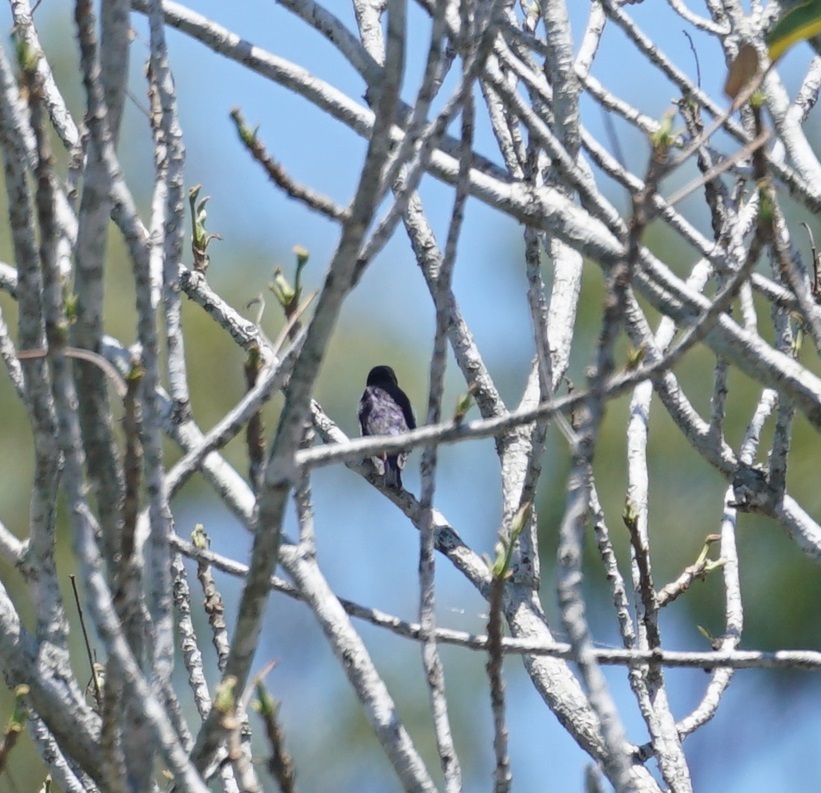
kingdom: Animalia
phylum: Chordata
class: Aves
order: Passeriformes
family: Dicaeidae
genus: Dicaeum
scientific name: Dicaeum hirundinaceum
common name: Mistletoebird
